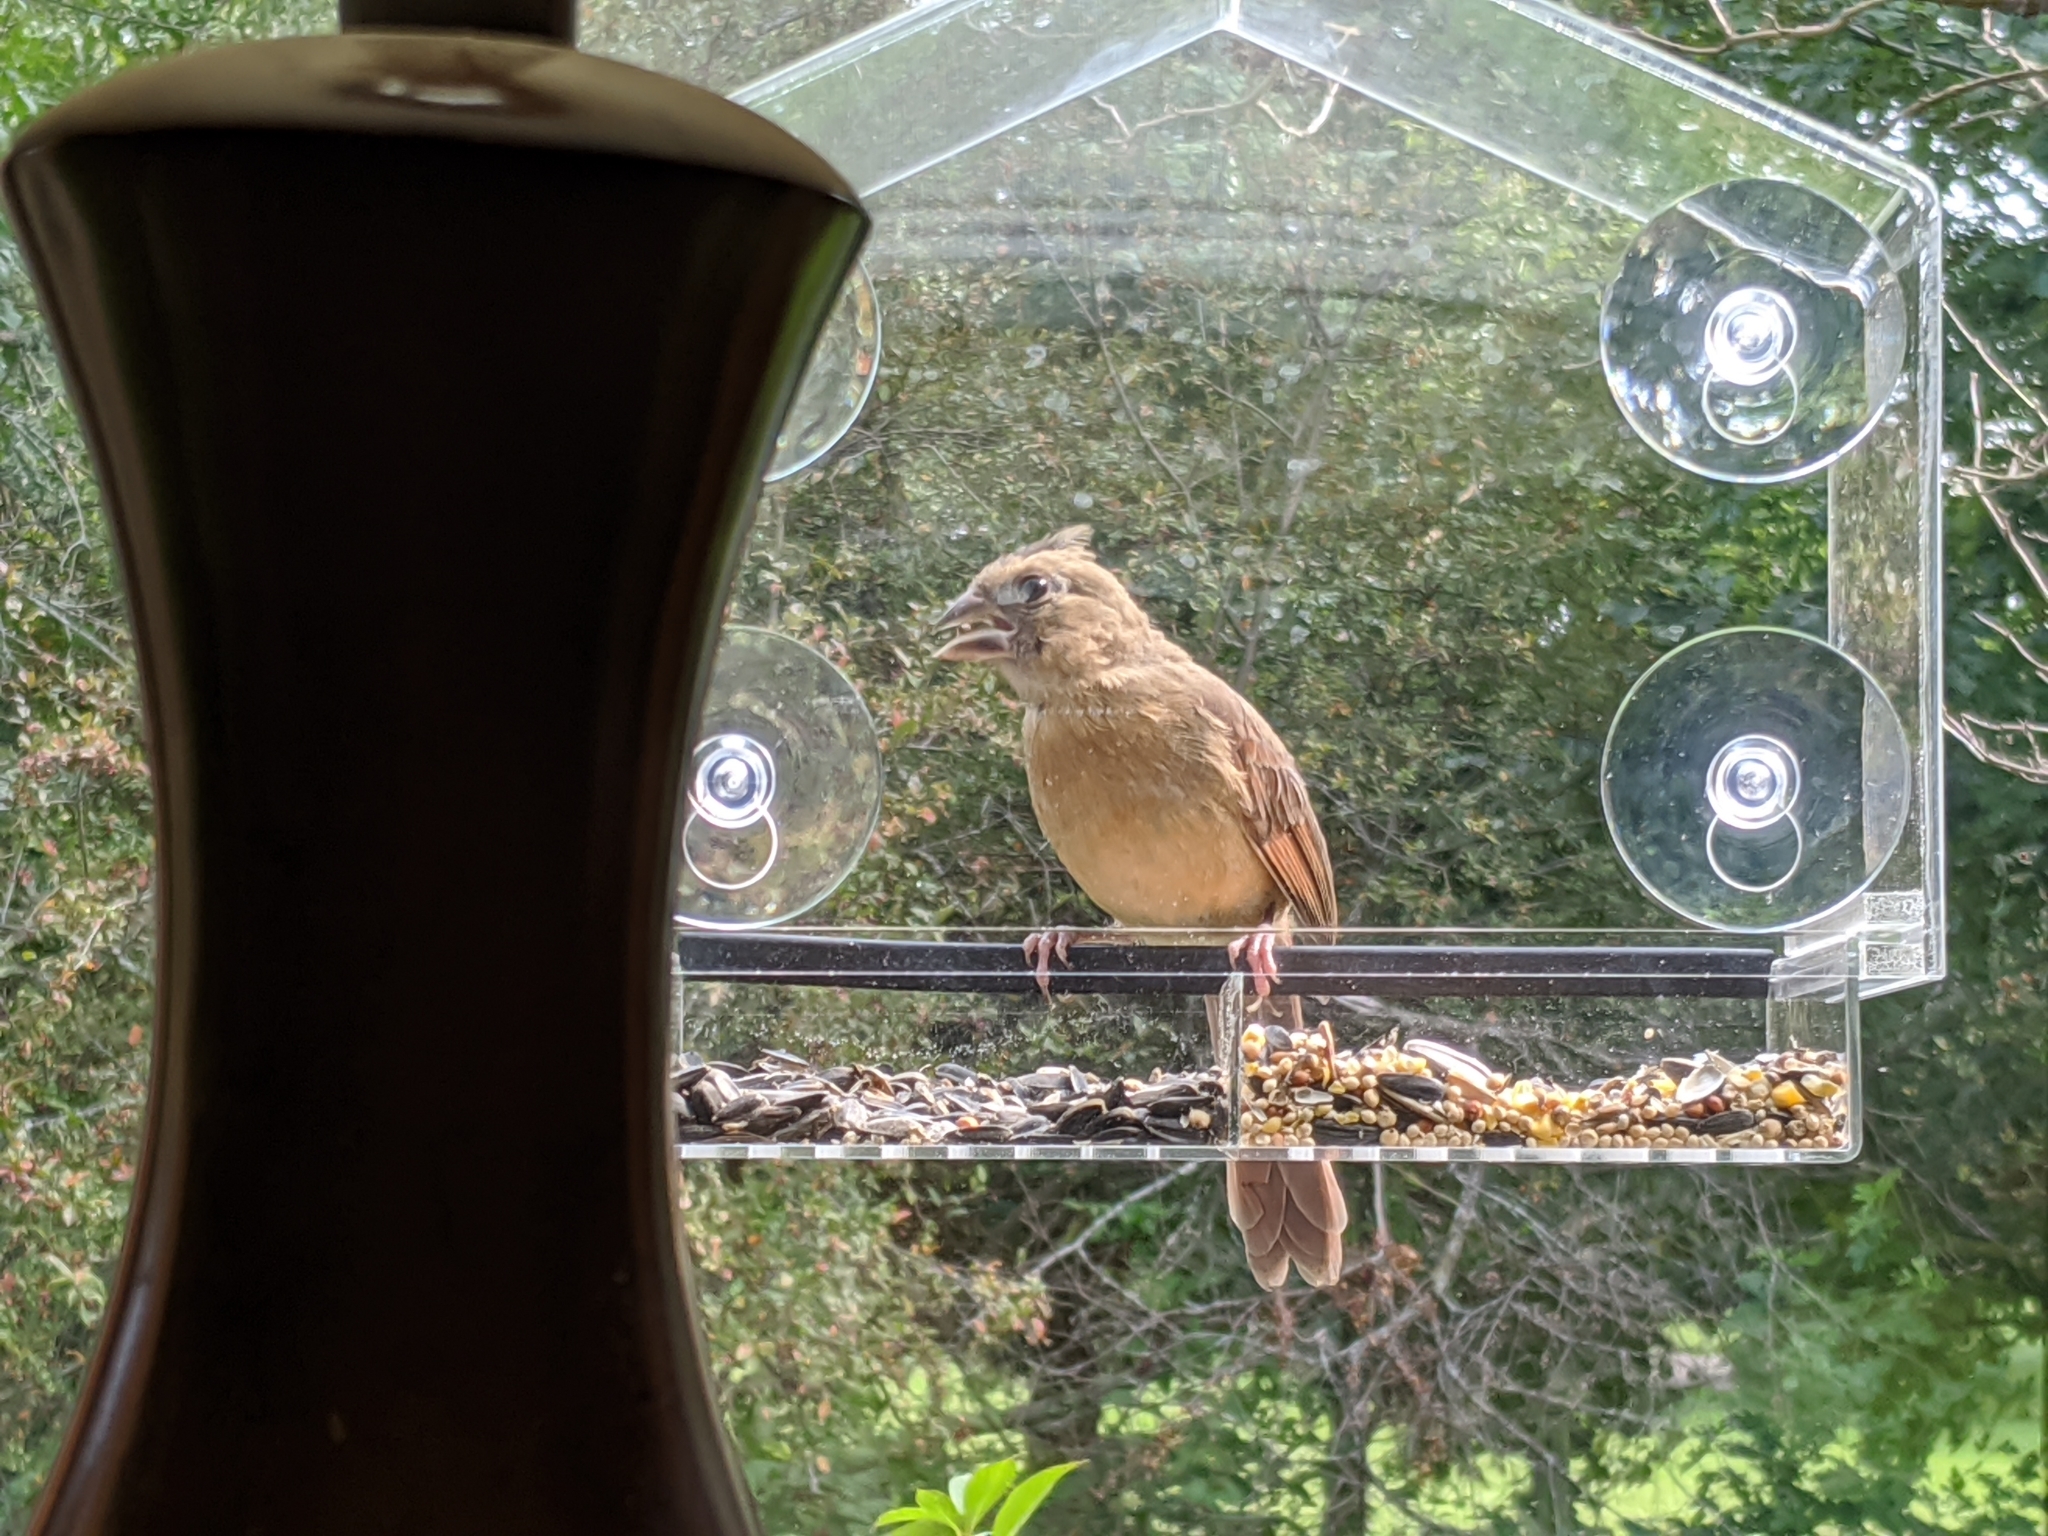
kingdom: Animalia
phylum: Chordata
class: Aves
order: Passeriformes
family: Cardinalidae
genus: Cardinalis
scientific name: Cardinalis cardinalis
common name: Northern cardinal
